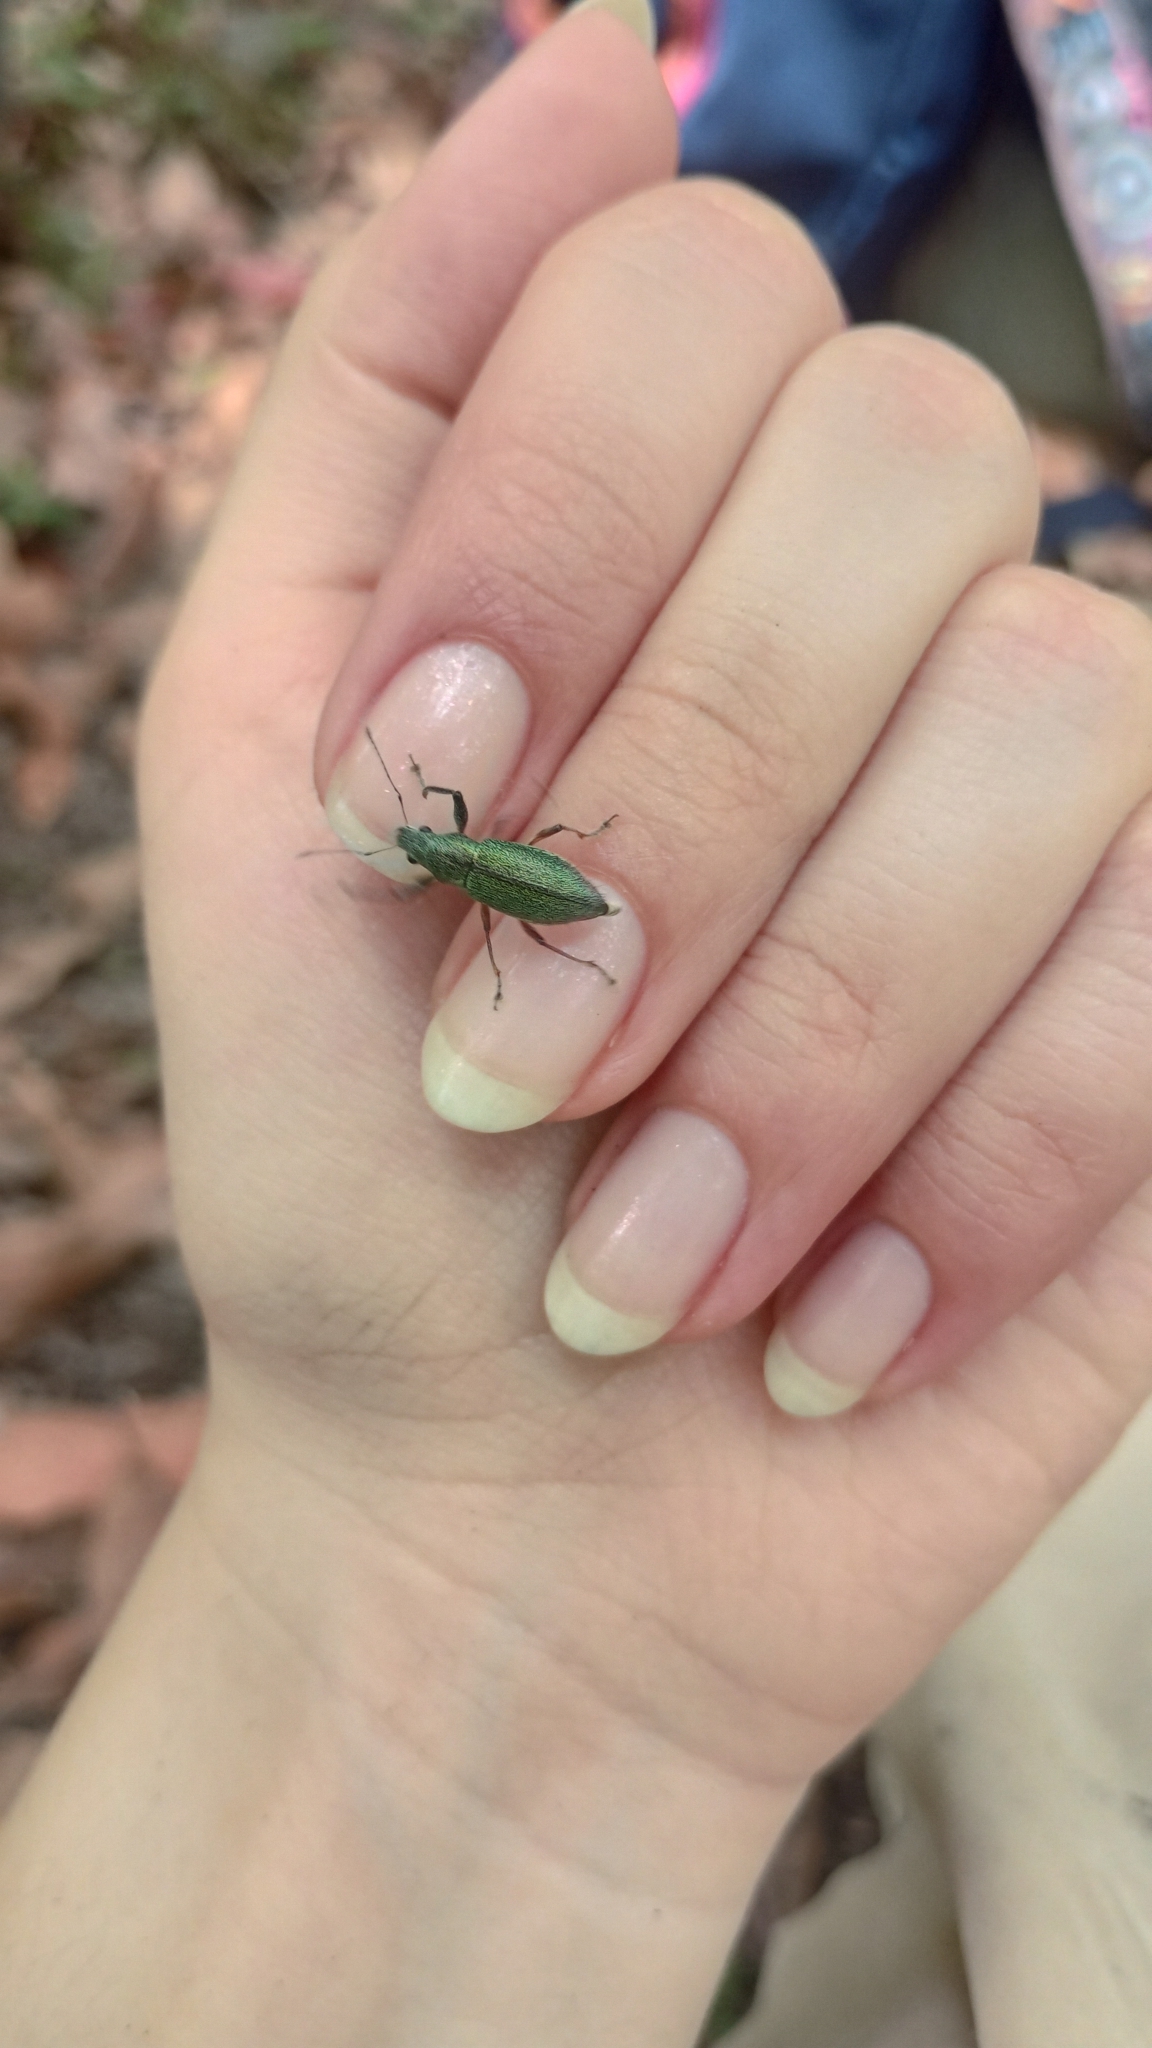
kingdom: Animalia
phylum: Arthropoda
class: Insecta
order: Coleoptera
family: Curculionidae
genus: Naupactus
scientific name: Naupactus auricinctus
